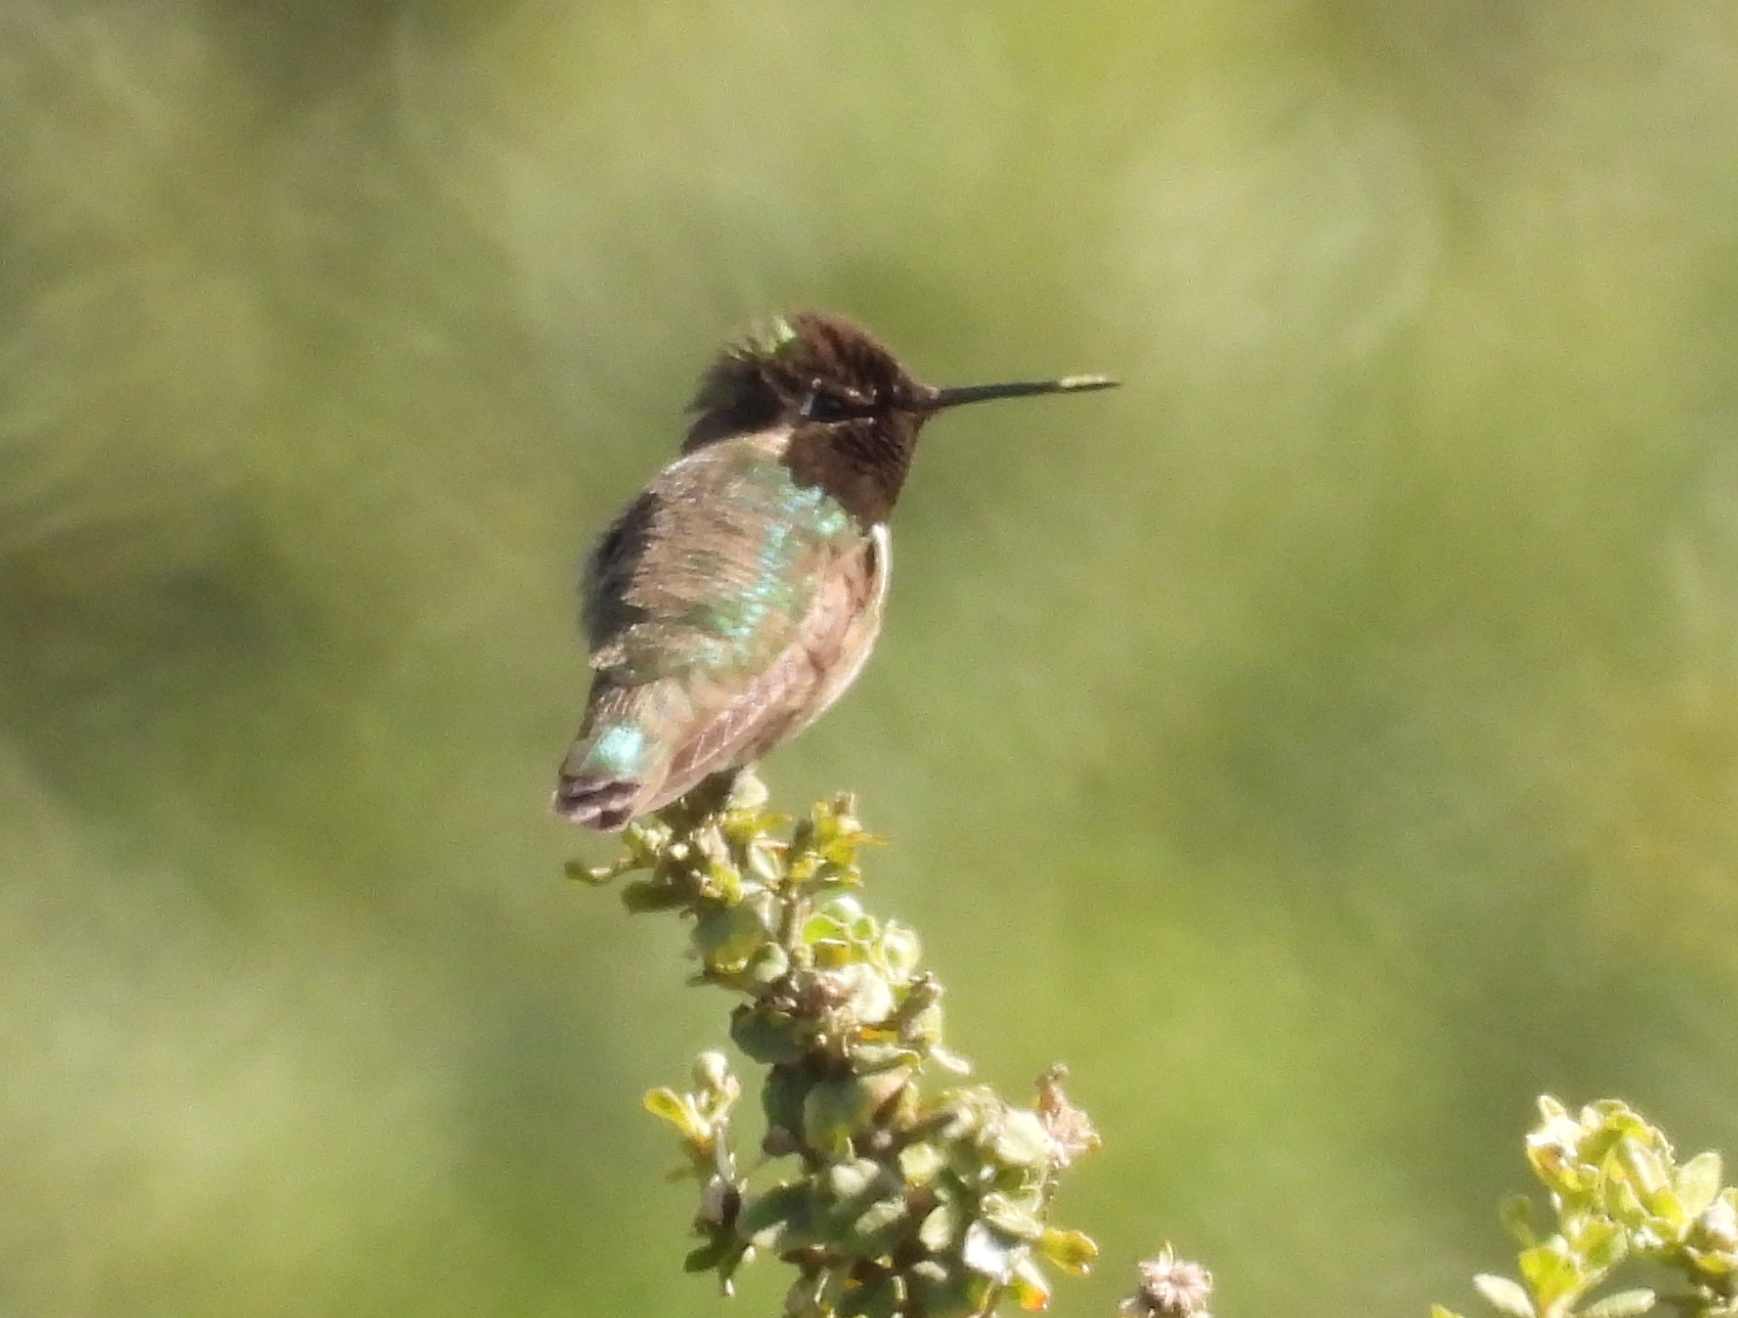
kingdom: Animalia
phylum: Chordata
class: Aves
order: Apodiformes
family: Trochilidae
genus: Calypte
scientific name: Calypte anna
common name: Anna's hummingbird
